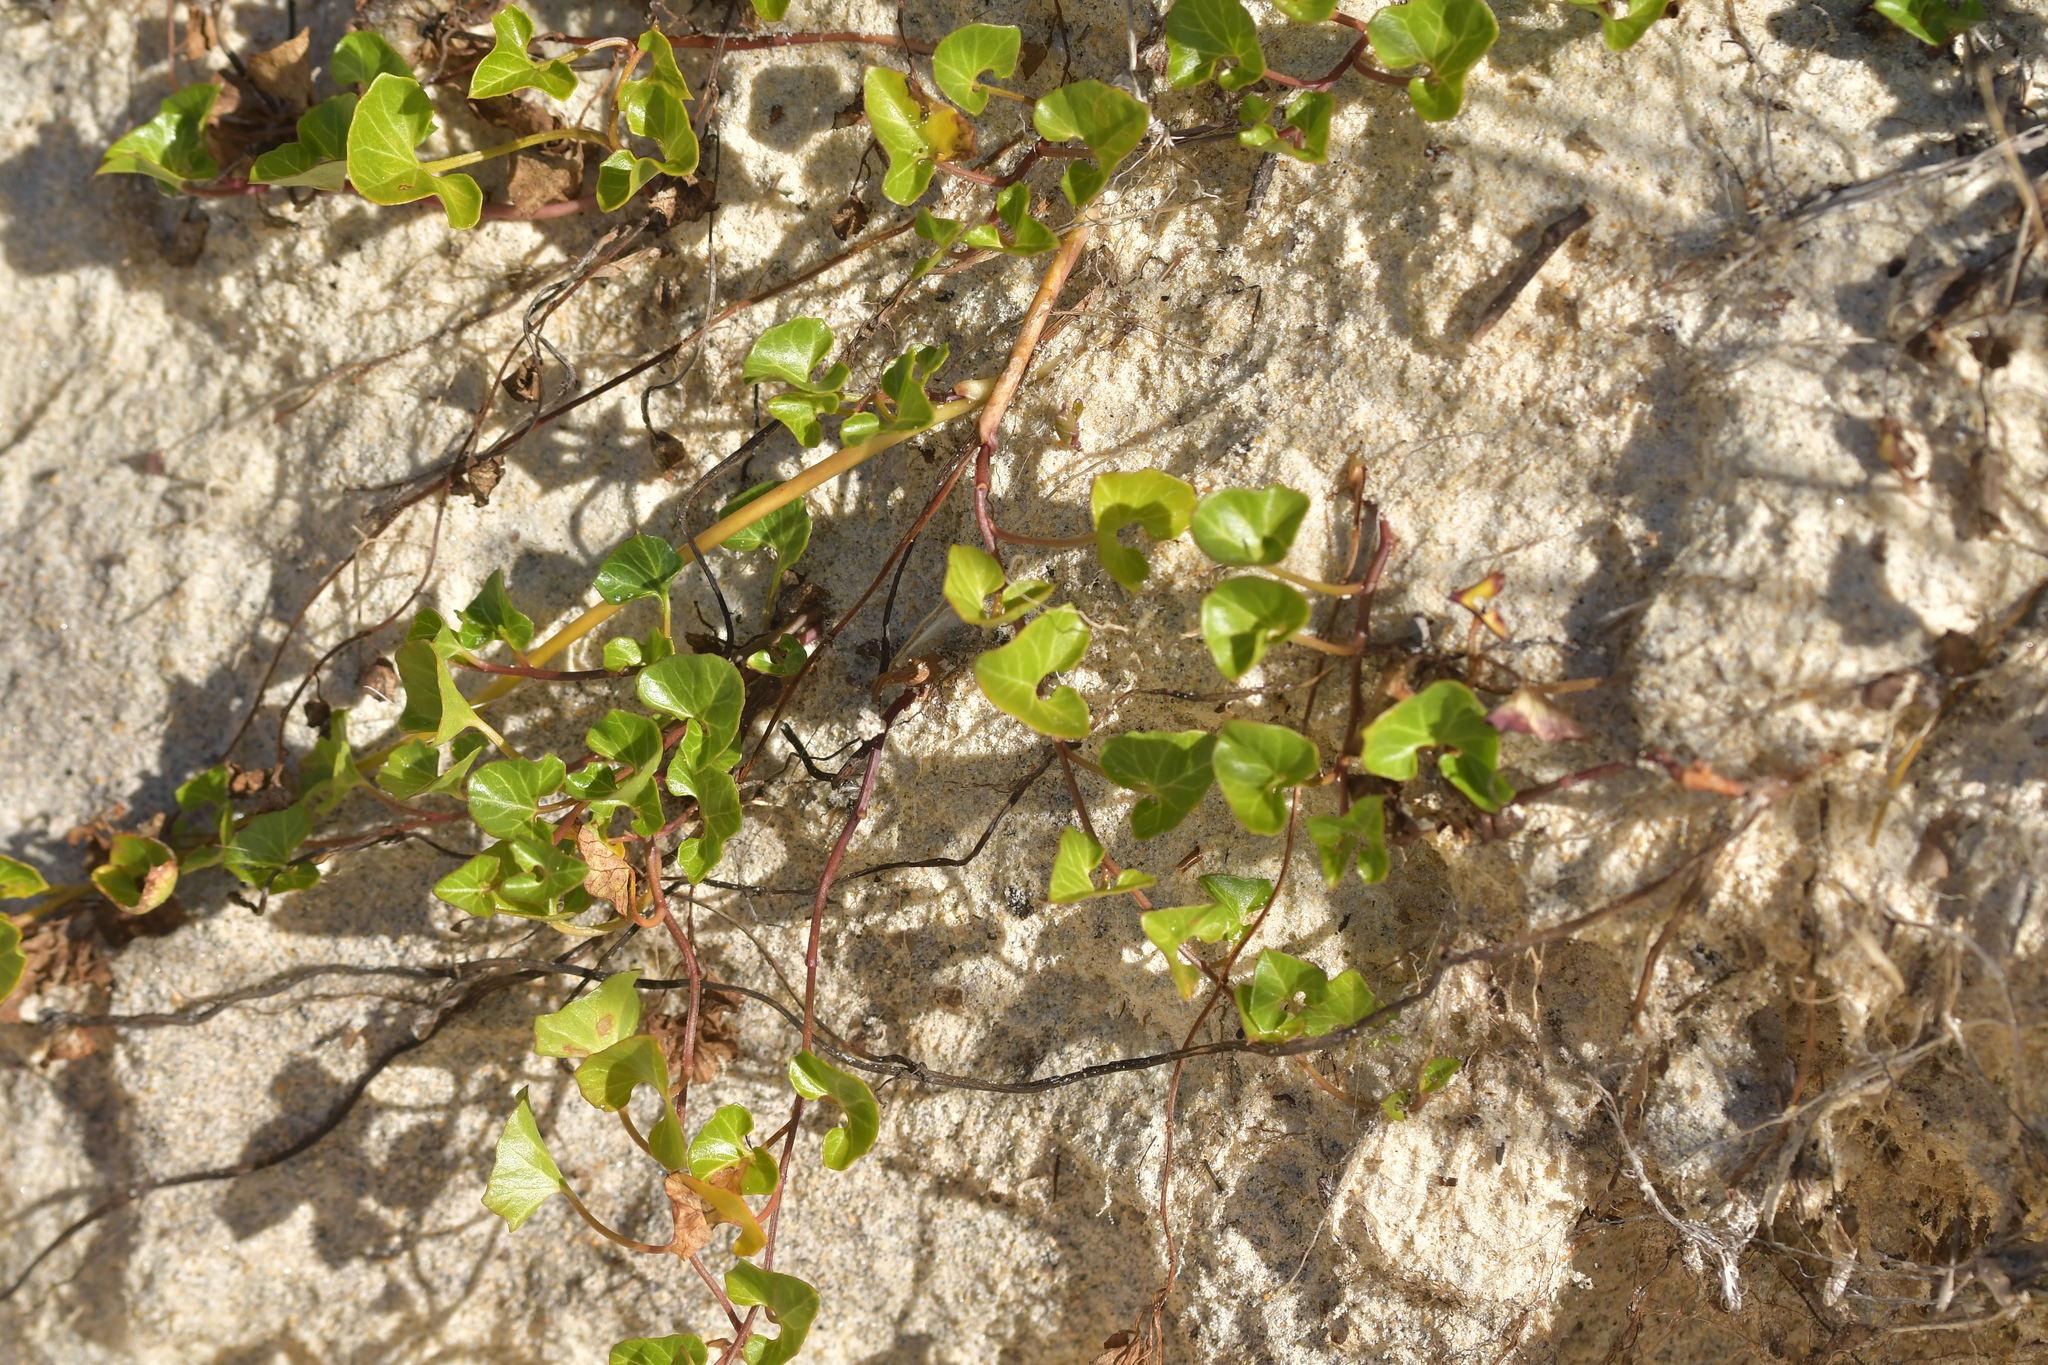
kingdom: Plantae
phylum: Tracheophyta
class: Magnoliopsida
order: Solanales
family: Convolvulaceae
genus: Calystegia
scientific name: Calystegia soldanella
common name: Sea bindweed
